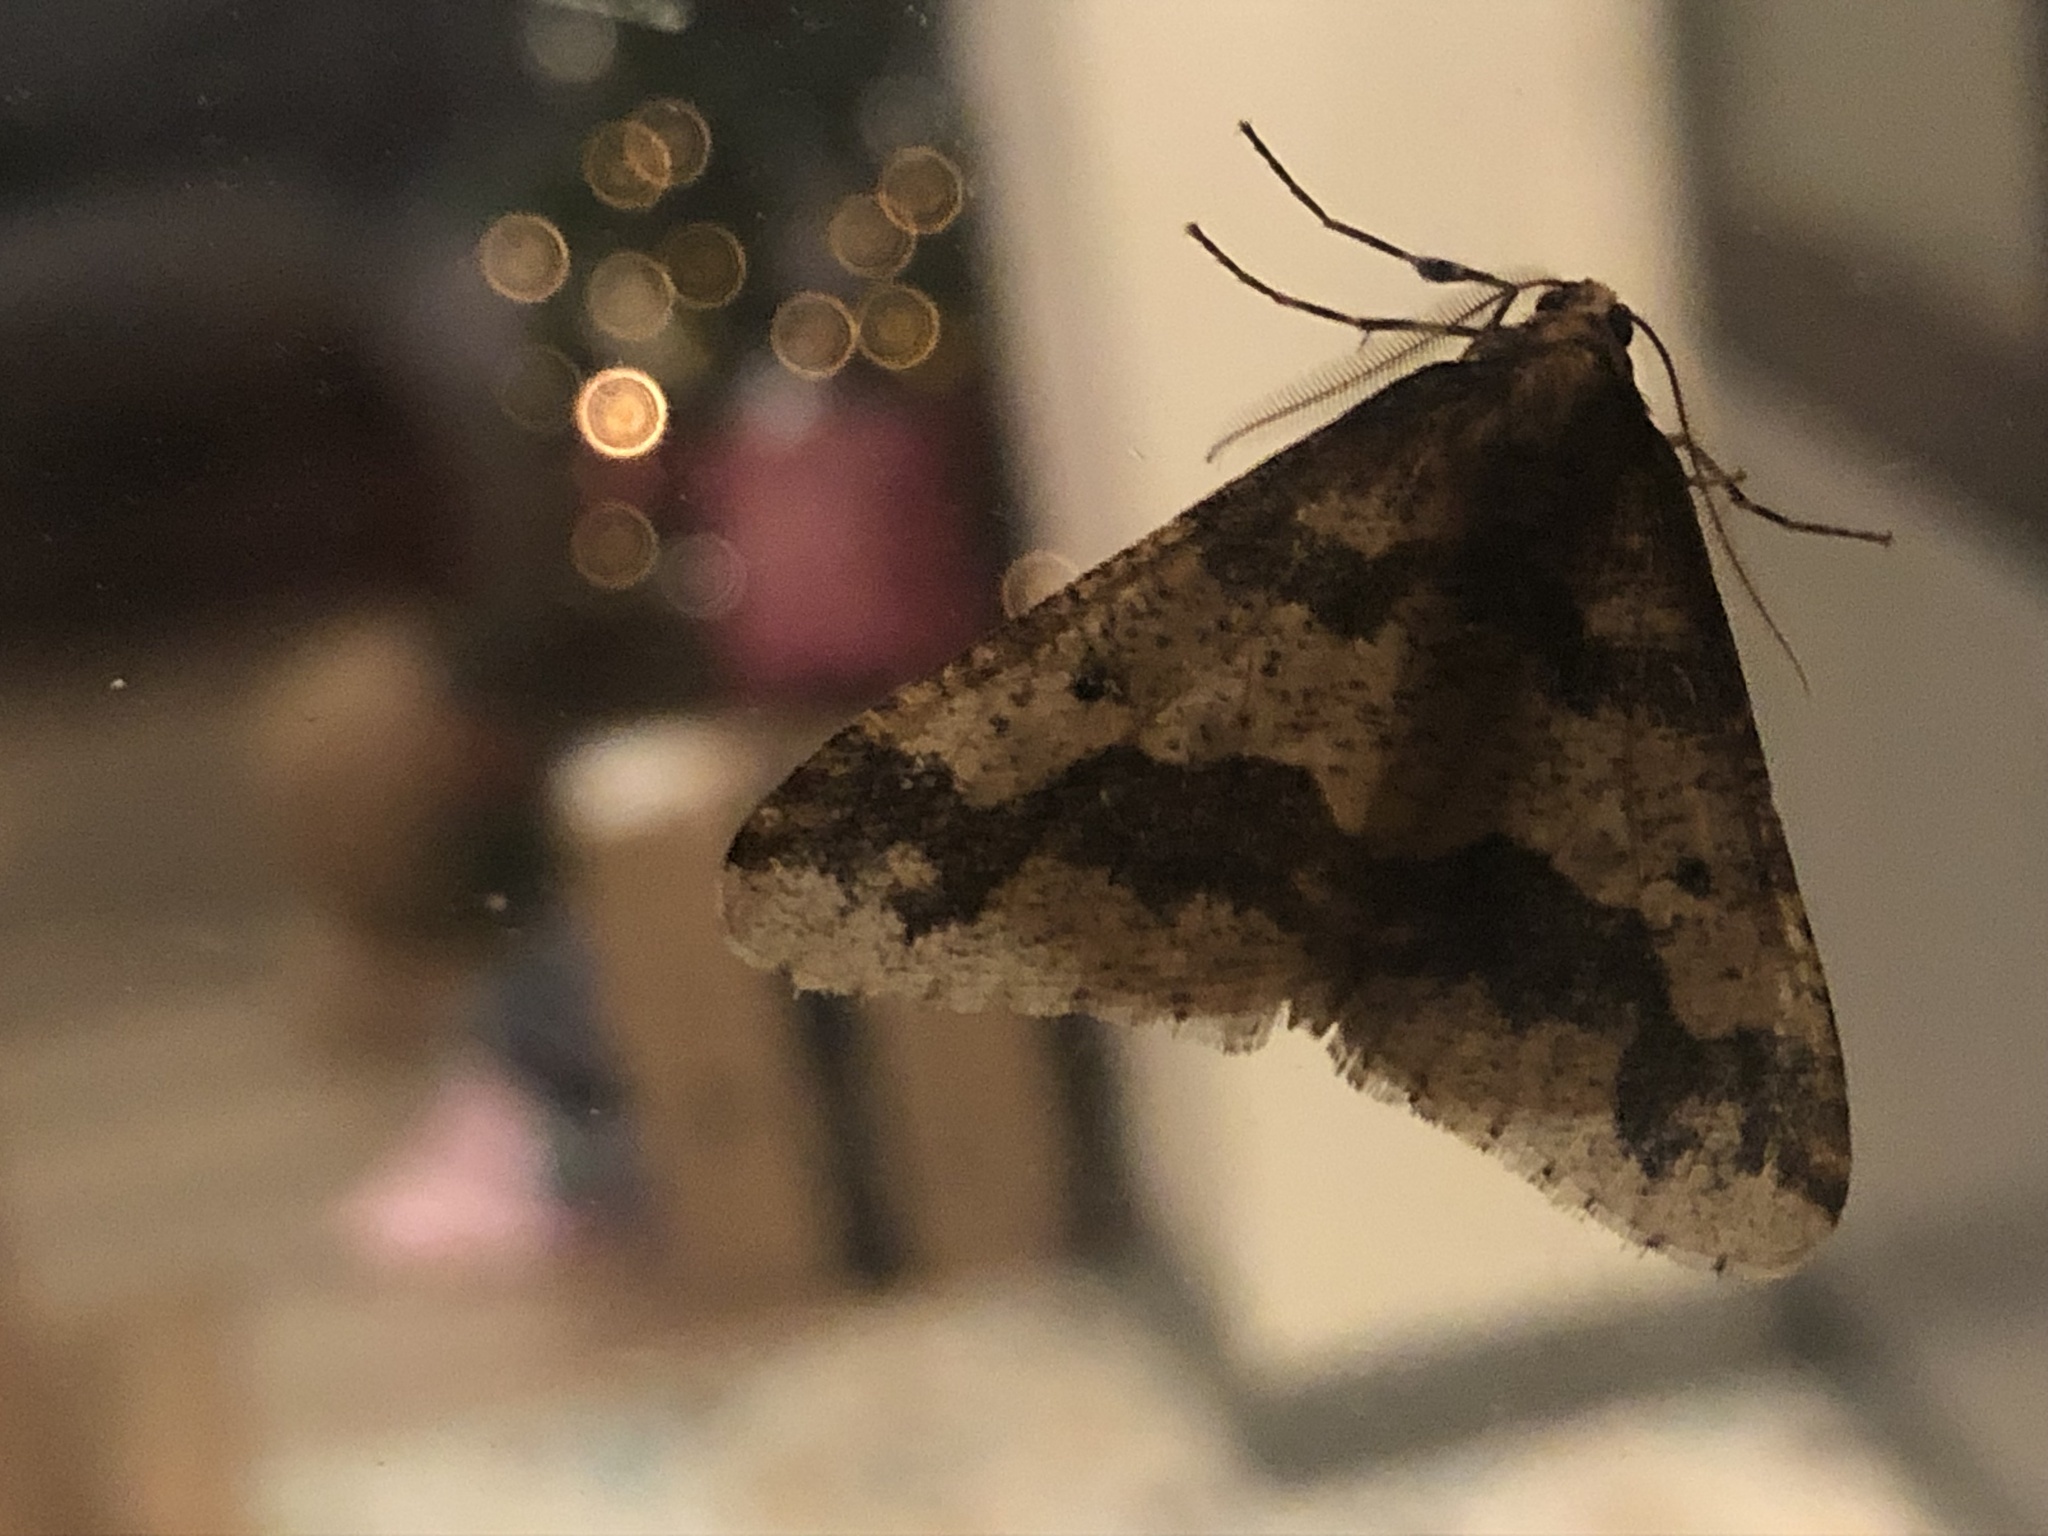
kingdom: Animalia
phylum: Arthropoda
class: Insecta
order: Lepidoptera
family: Geometridae
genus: Erannis
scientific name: Erannis defoliaria
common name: Mottled umber
